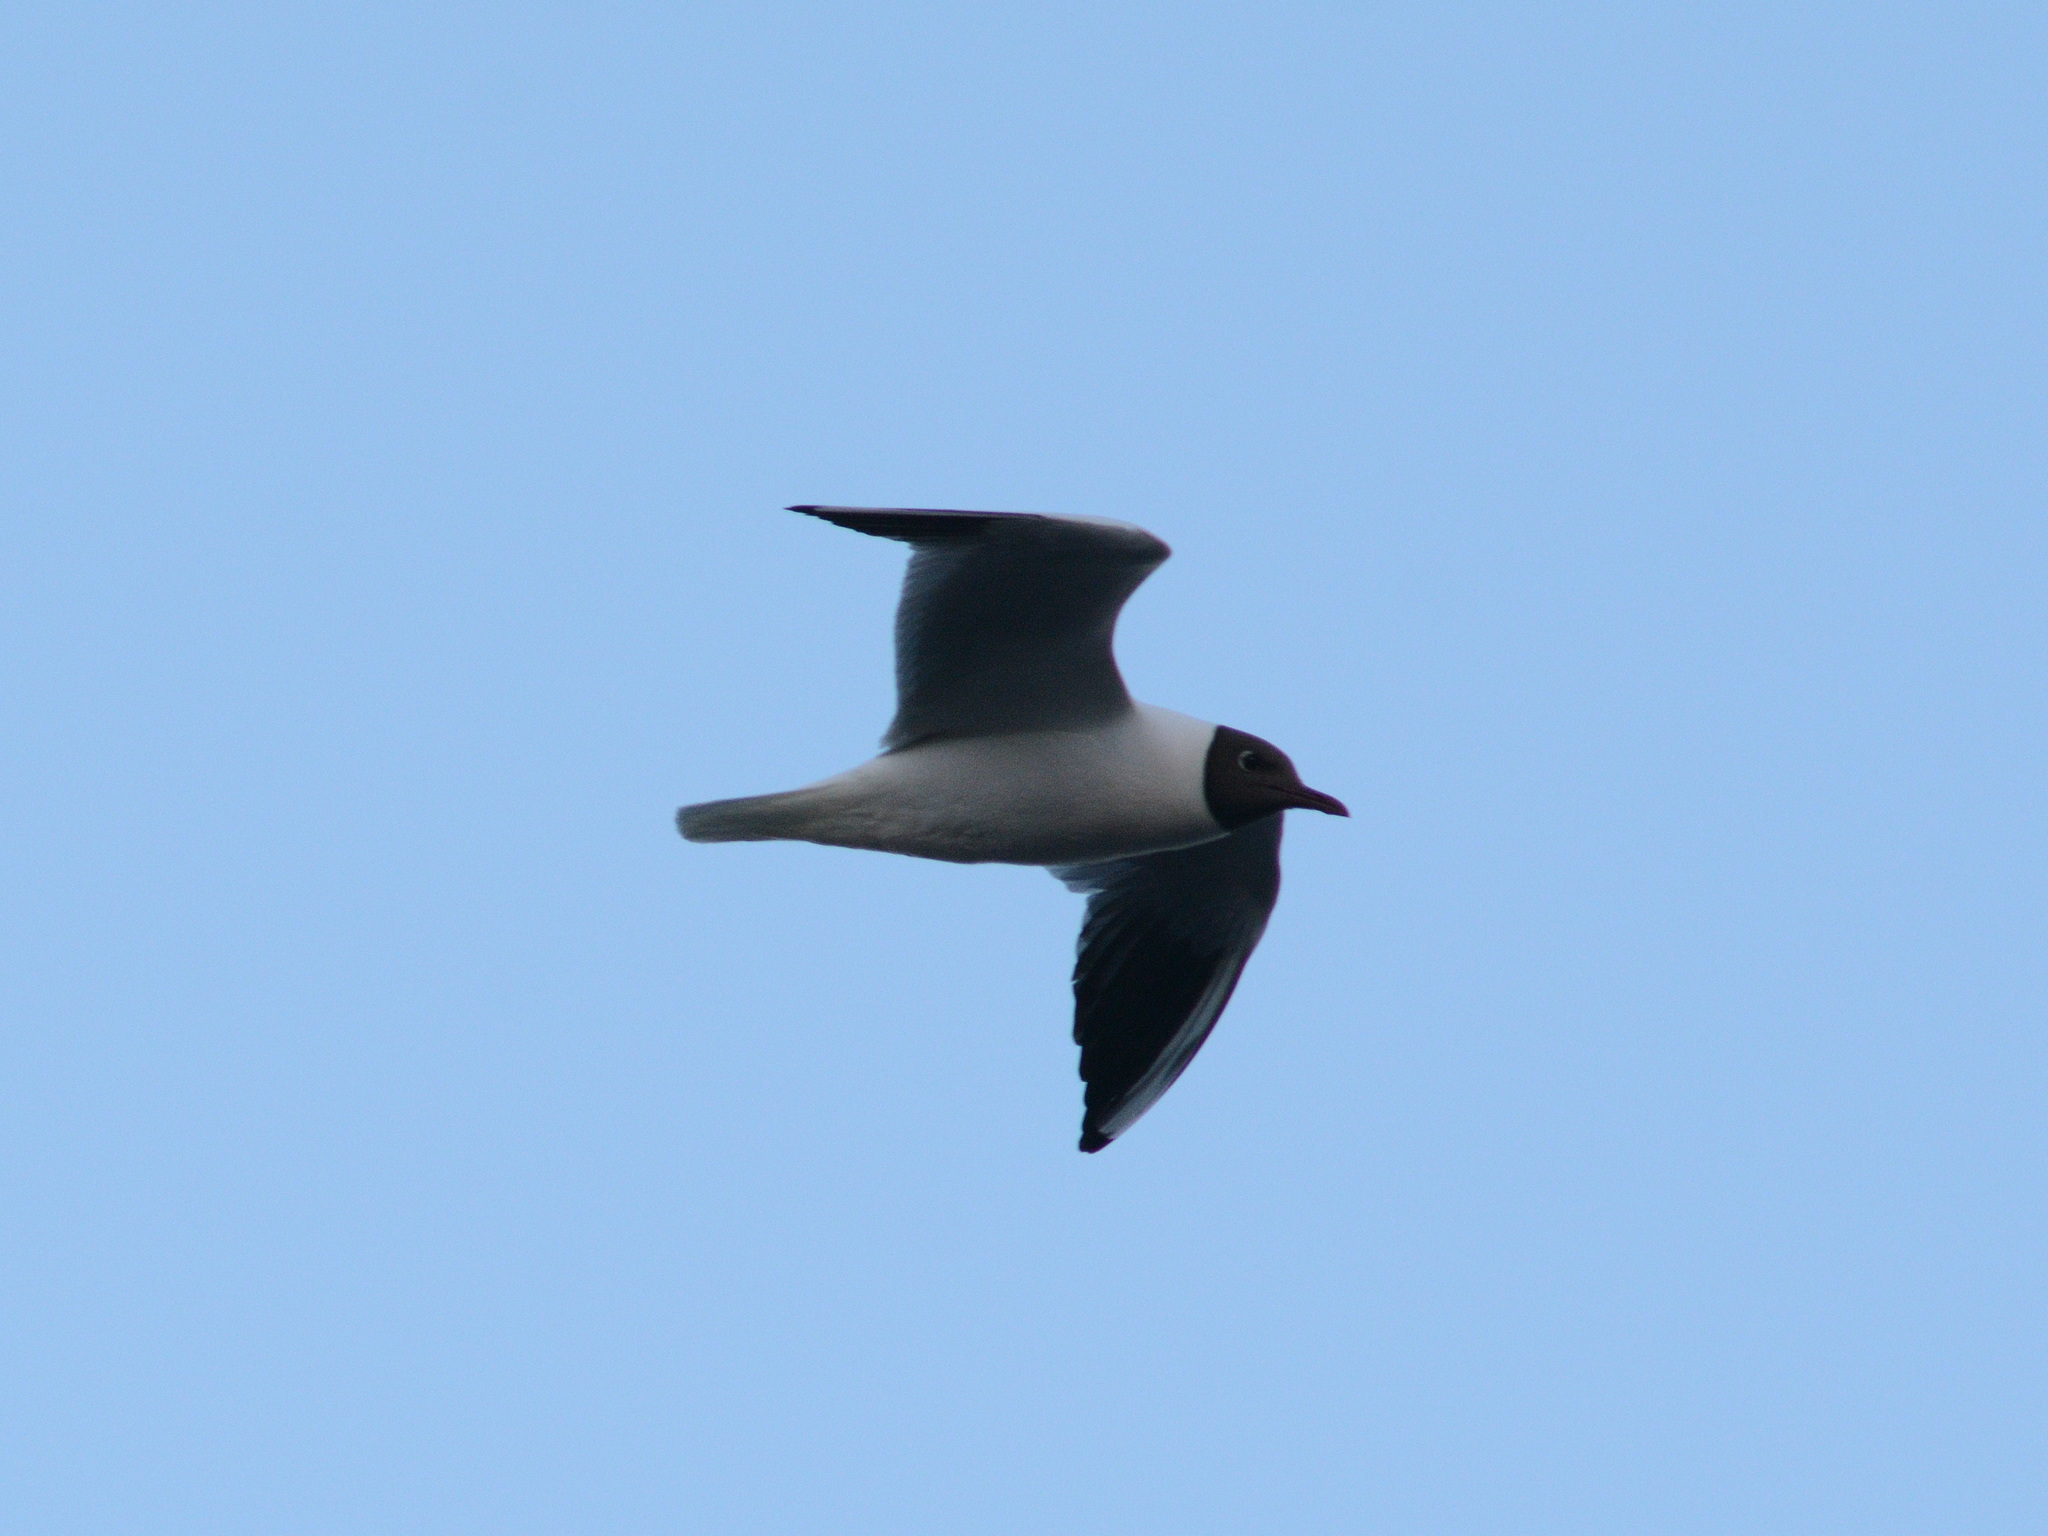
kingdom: Animalia
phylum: Chordata
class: Aves
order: Charadriiformes
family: Laridae
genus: Chroicocephalus
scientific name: Chroicocephalus ridibundus
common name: Black-headed gull
